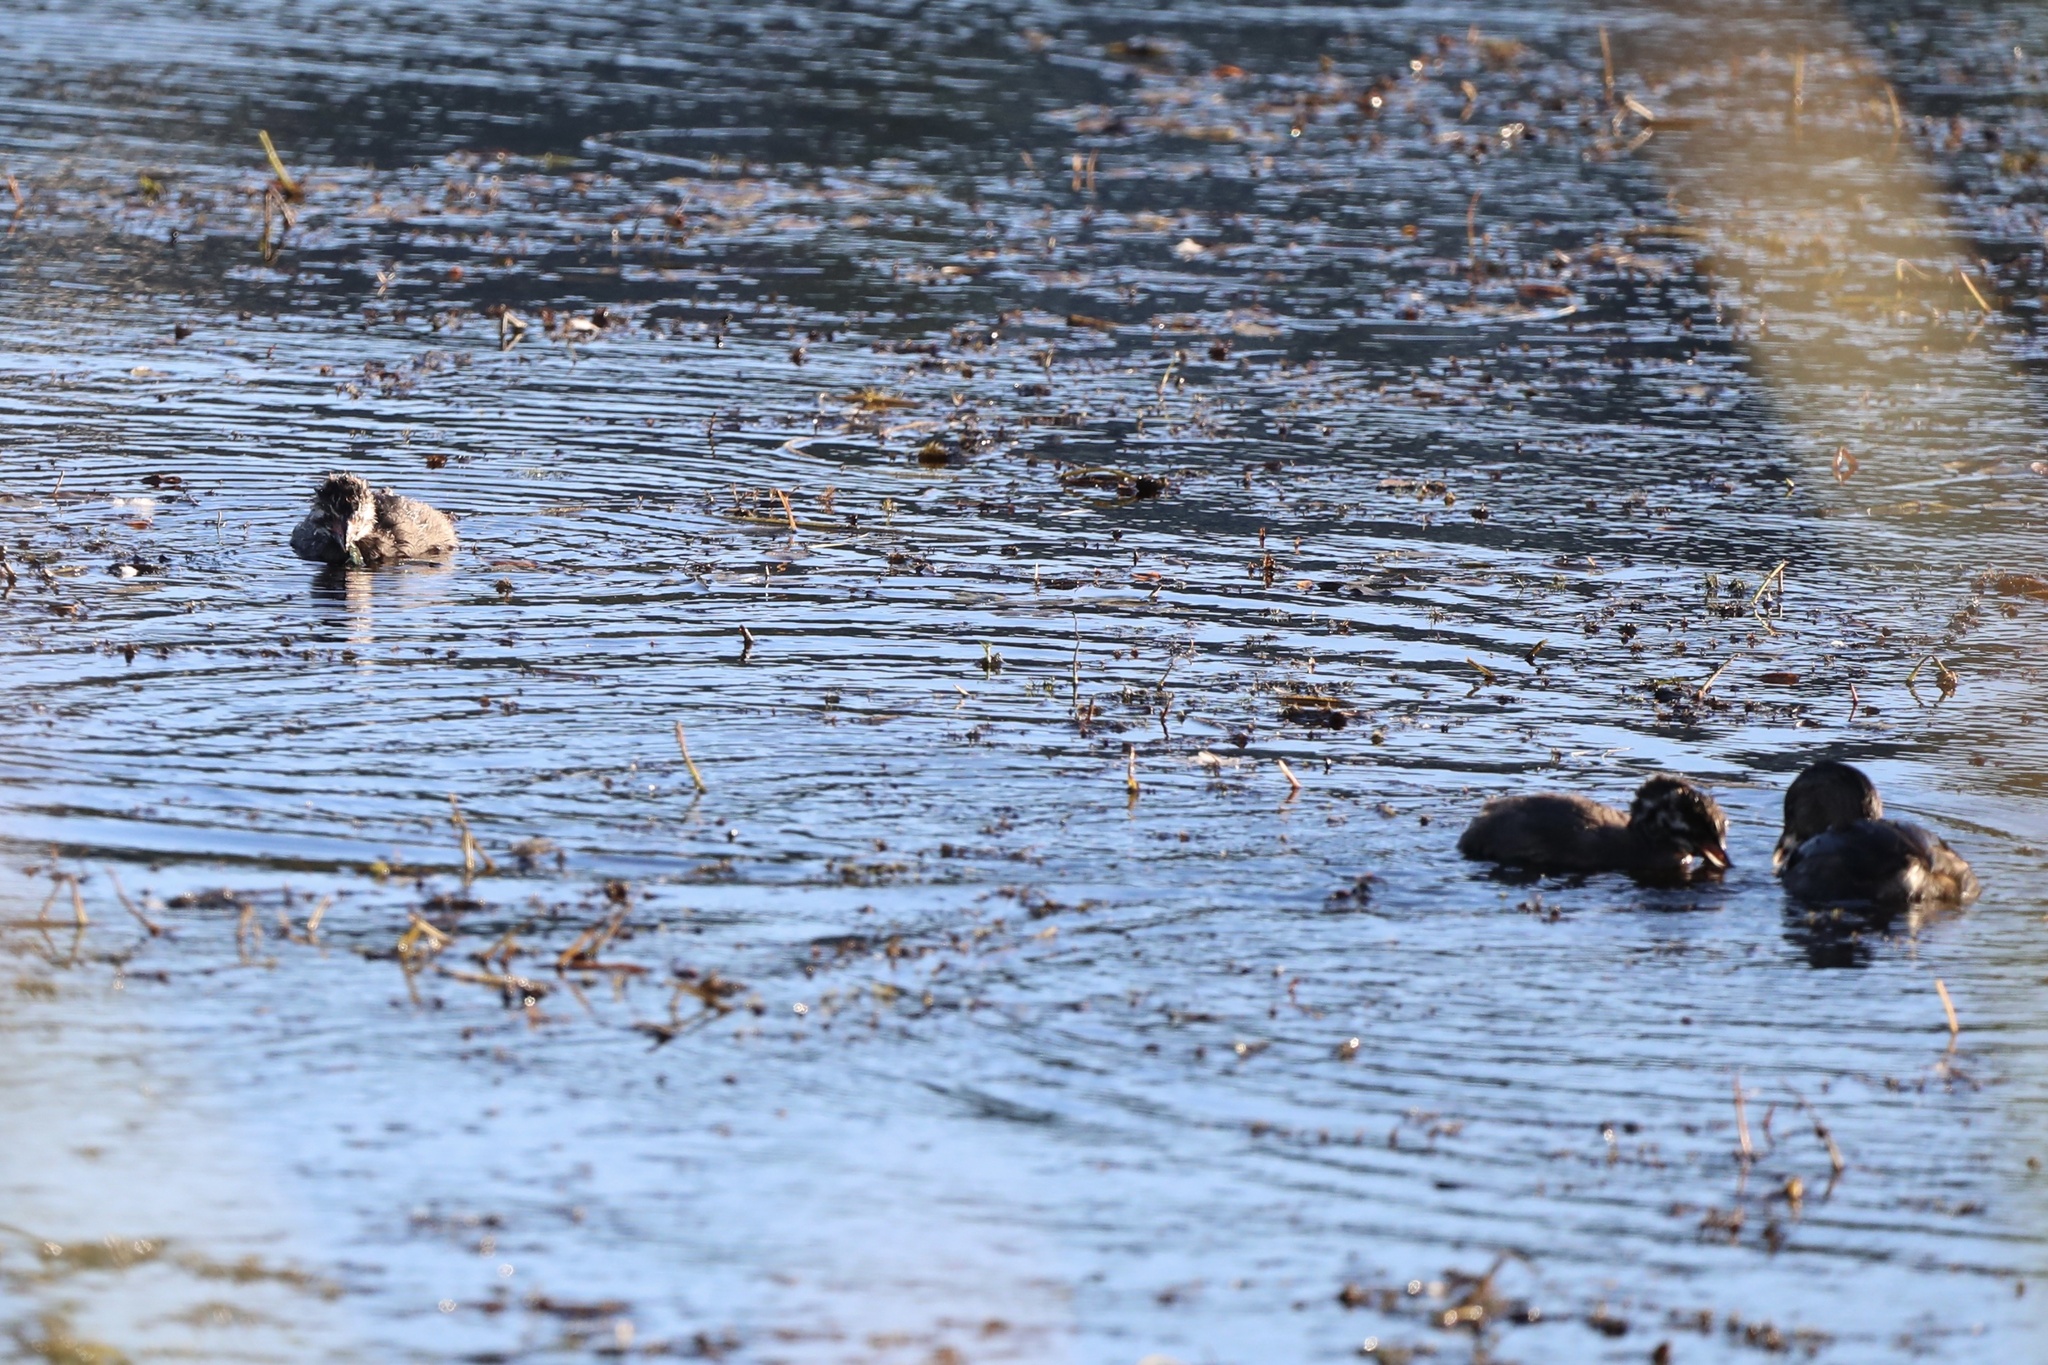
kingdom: Animalia
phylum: Chordata
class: Aves
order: Podicipediformes
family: Podicipedidae
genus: Podilymbus
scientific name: Podilymbus podiceps
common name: Pied-billed grebe
